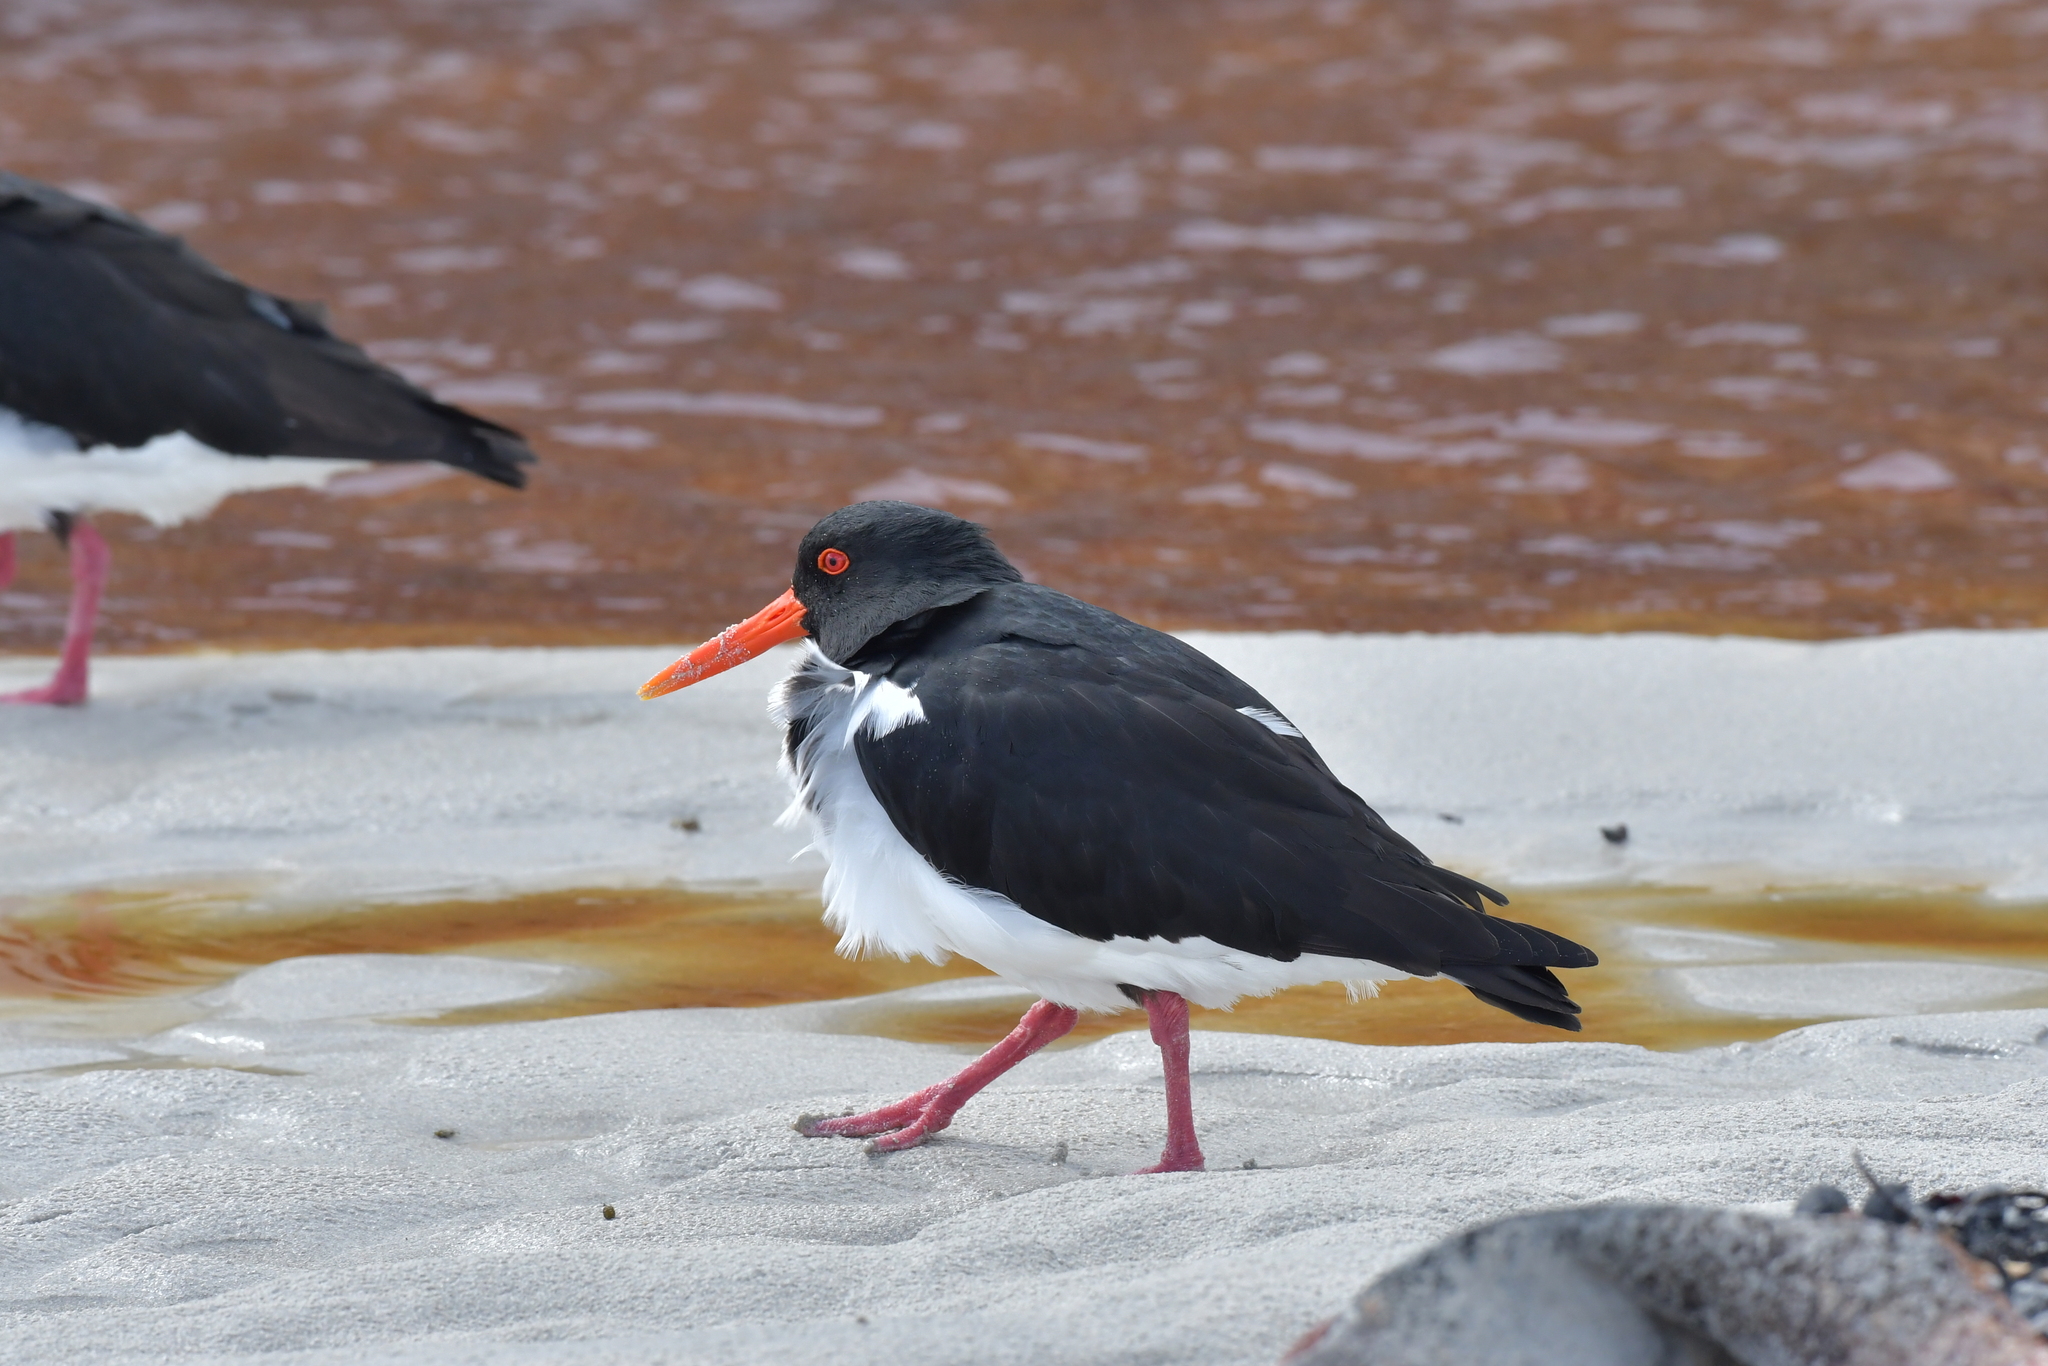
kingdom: Animalia
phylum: Chordata
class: Aves
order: Charadriiformes
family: Haematopodidae
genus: Haematopus
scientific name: Haematopus chathamensis
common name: Chatham oystercatcher
